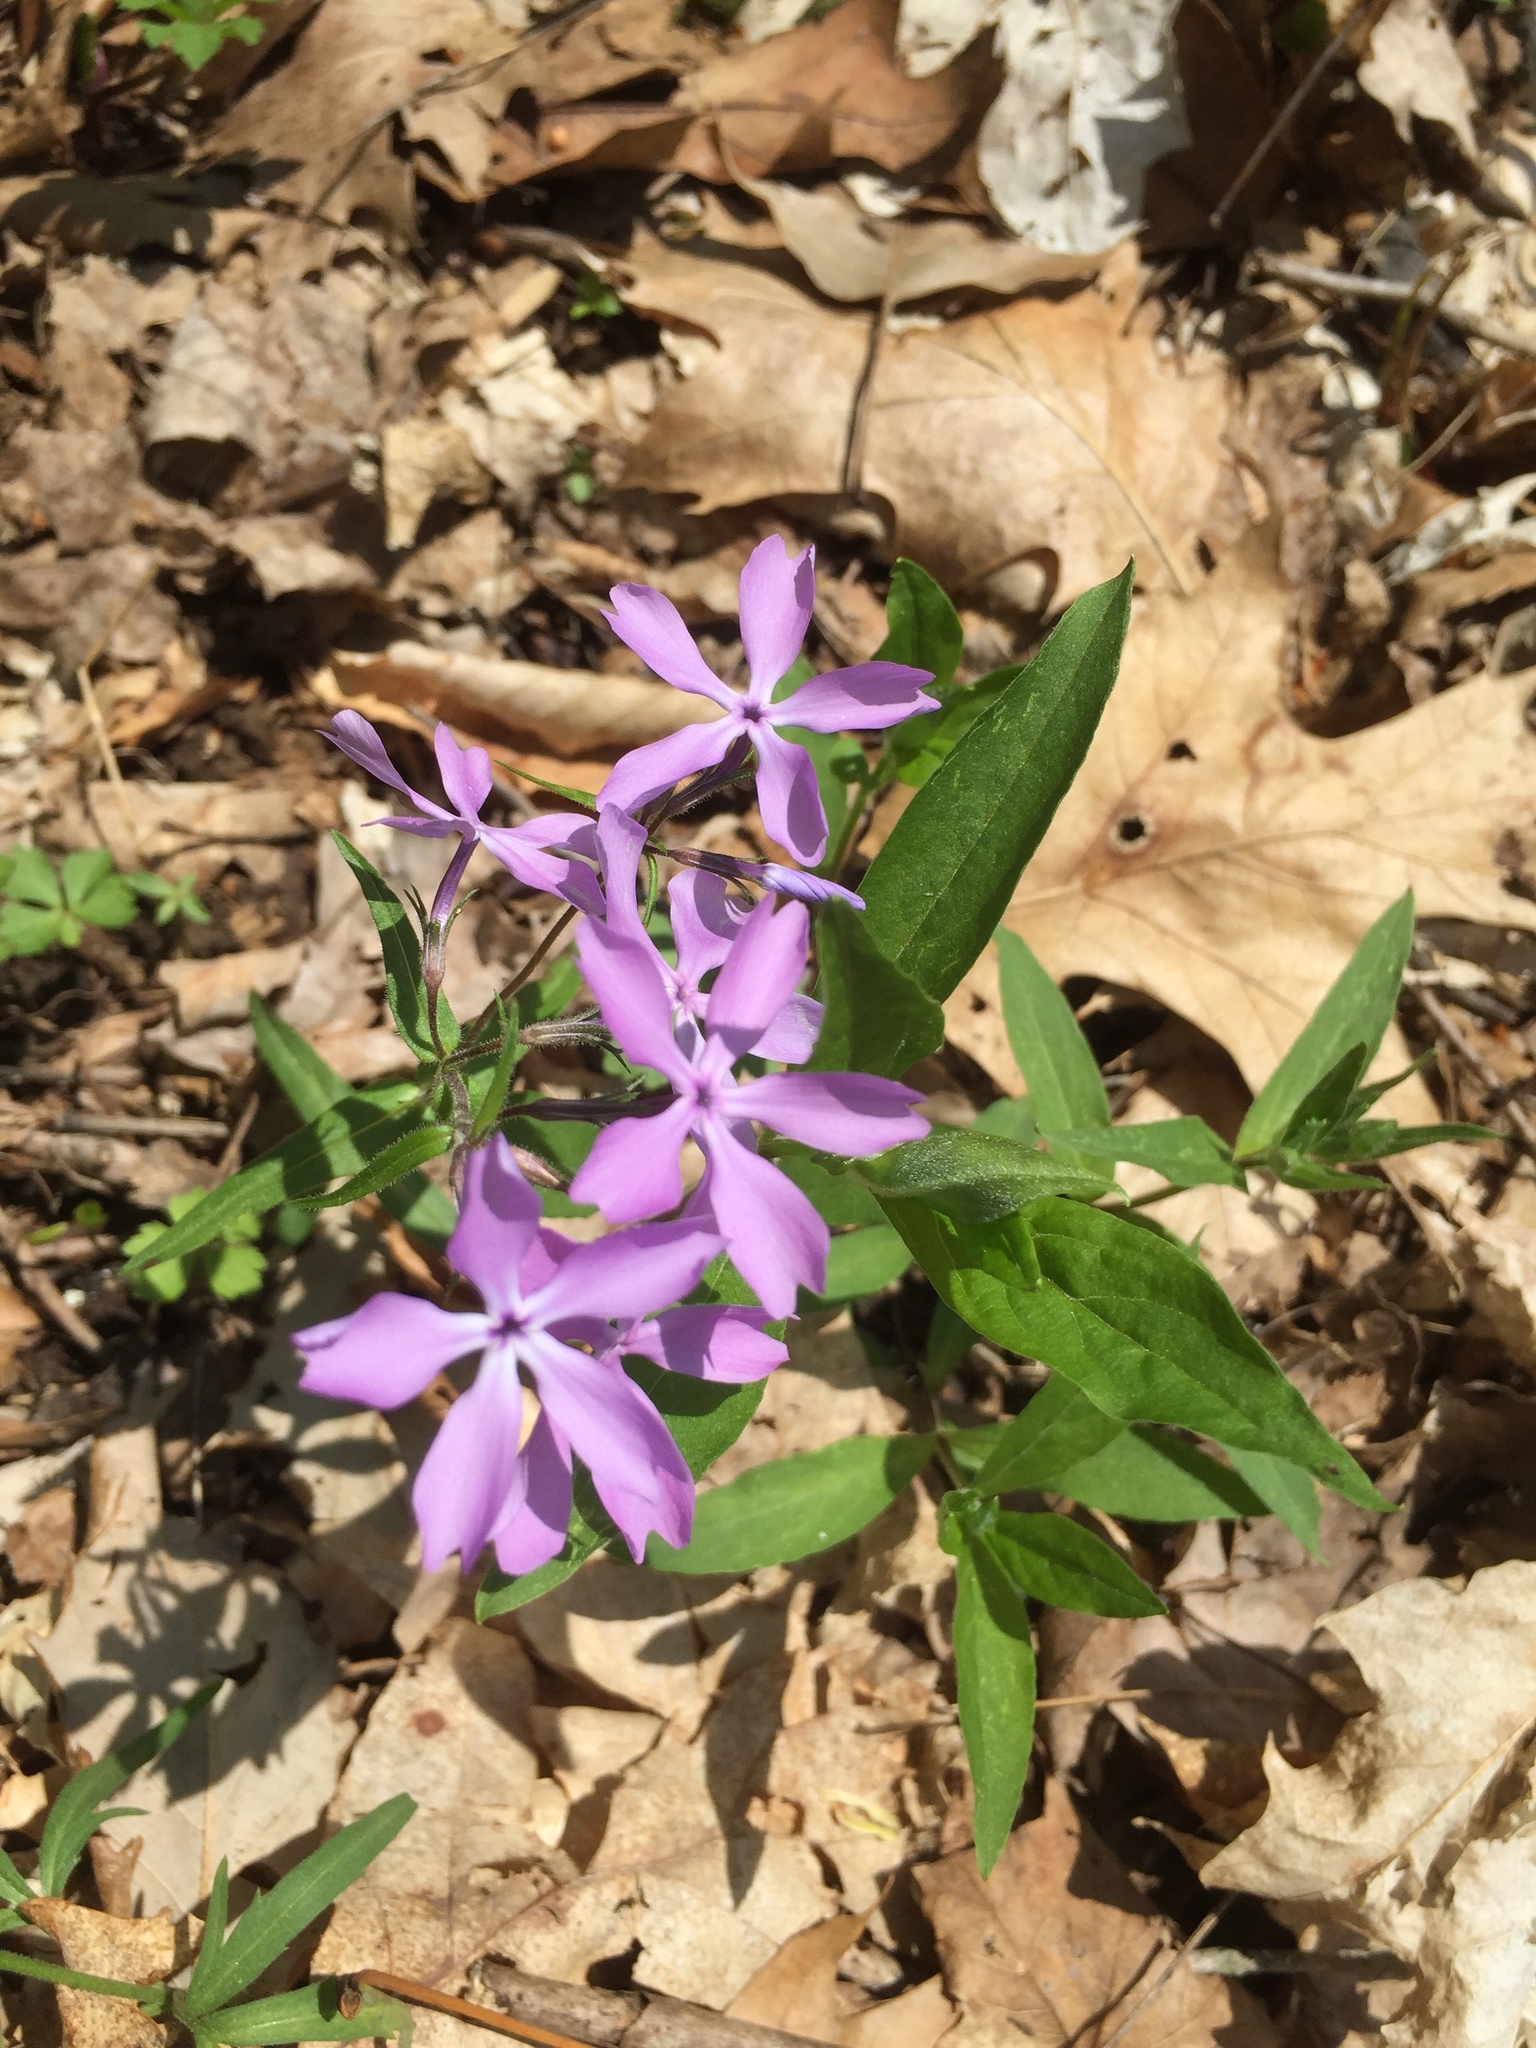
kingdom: Plantae
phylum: Tracheophyta
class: Magnoliopsida
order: Ericales
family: Polemoniaceae
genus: Phlox
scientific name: Phlox divaricata
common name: Blue phlox
